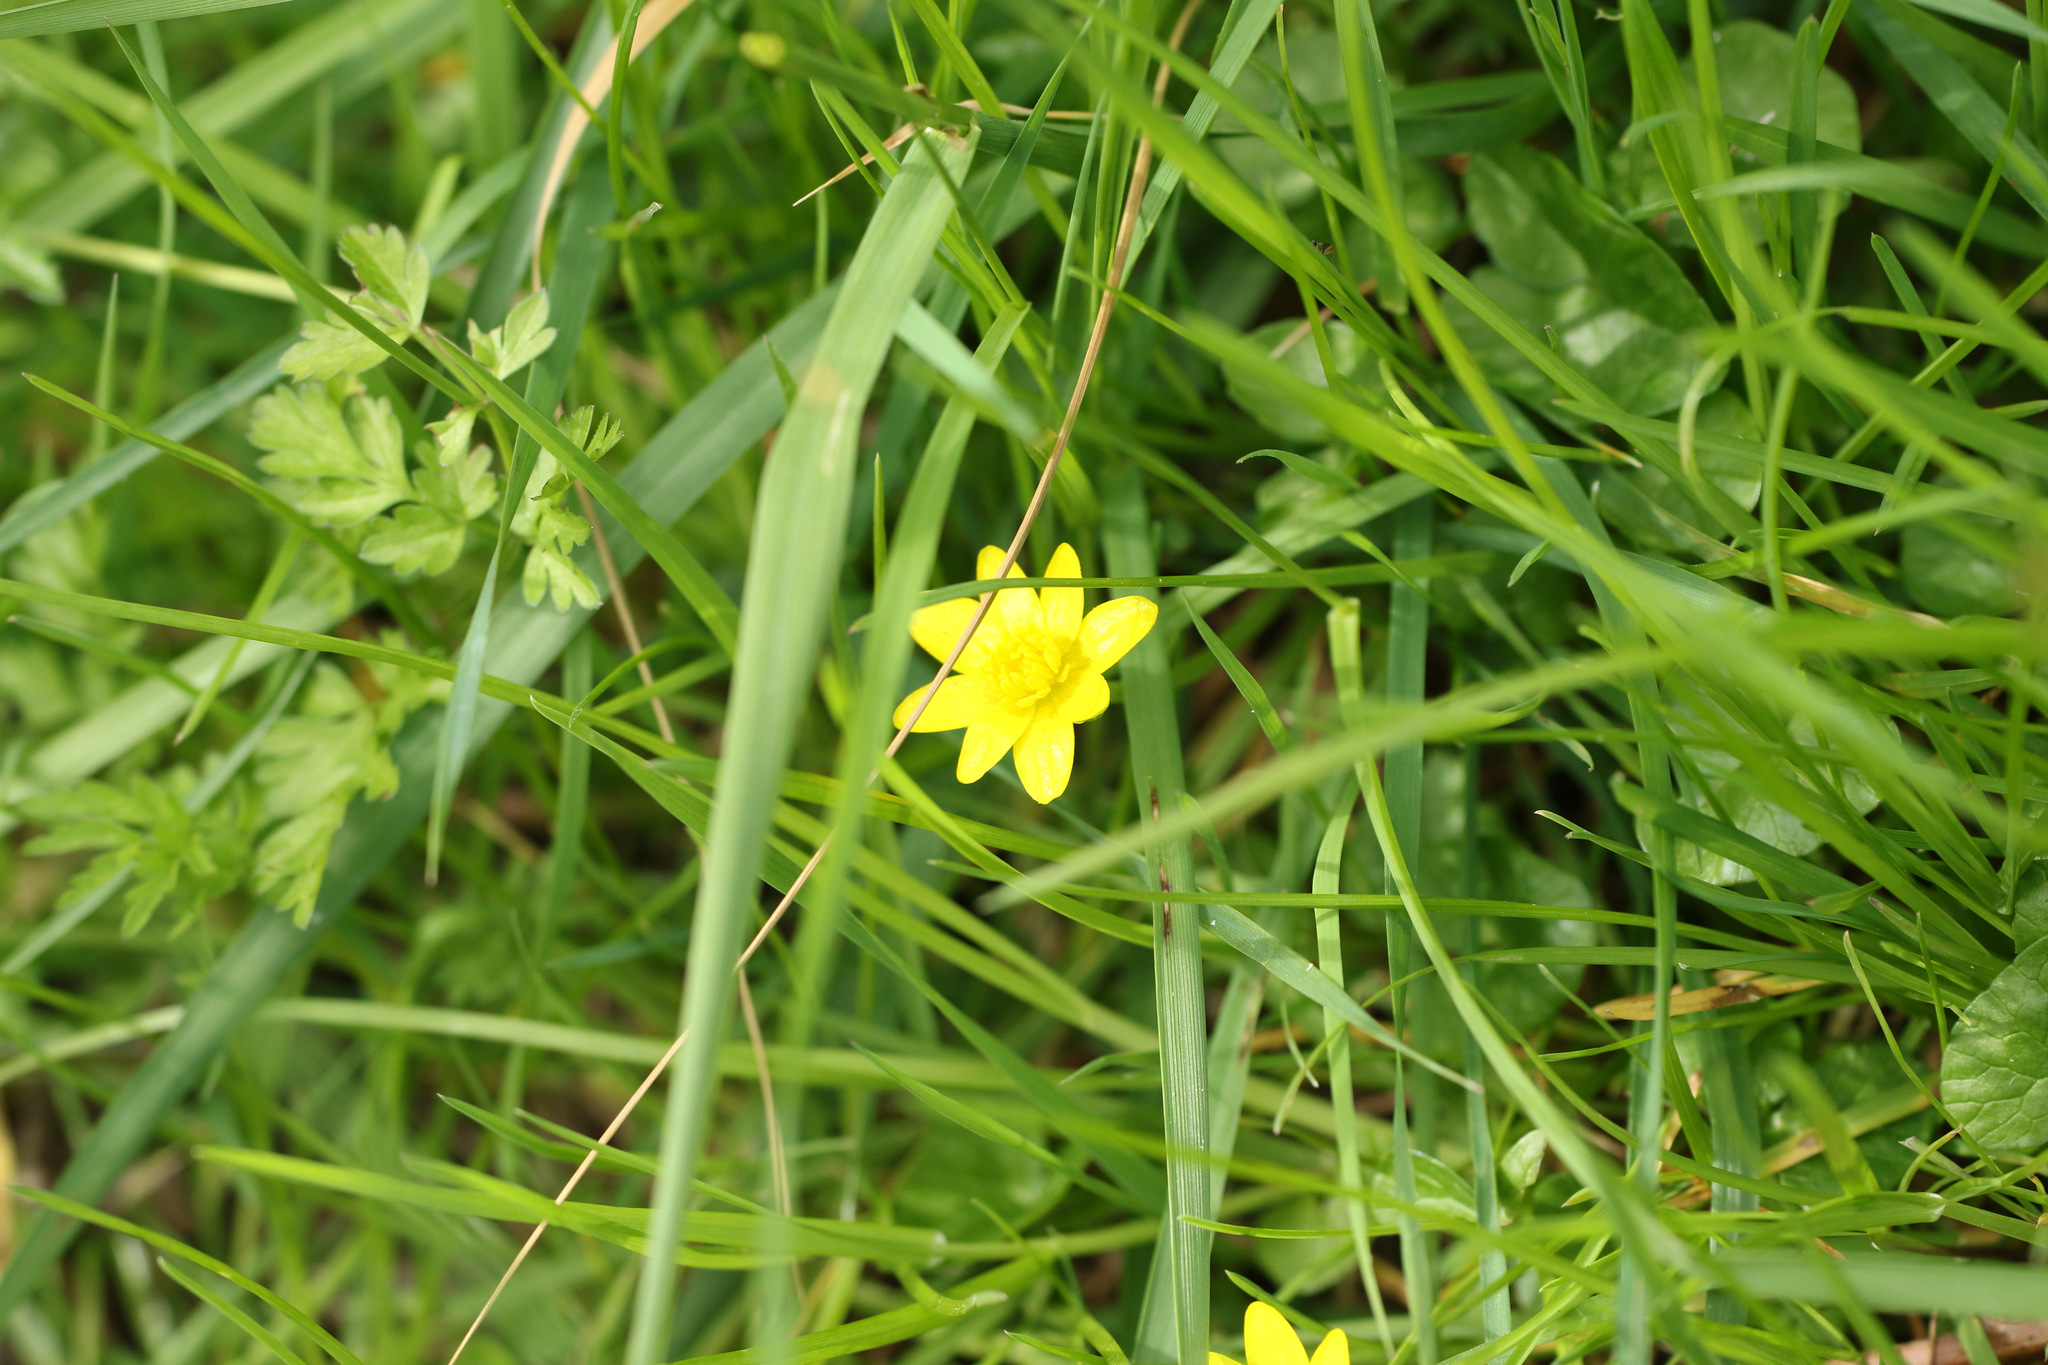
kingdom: Plantae
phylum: Tracheophyta
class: Magnoliopsida
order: Ranunculales
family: Ranunculaceae
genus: Ficaria
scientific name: Ficaria verna
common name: Lesser celandine
